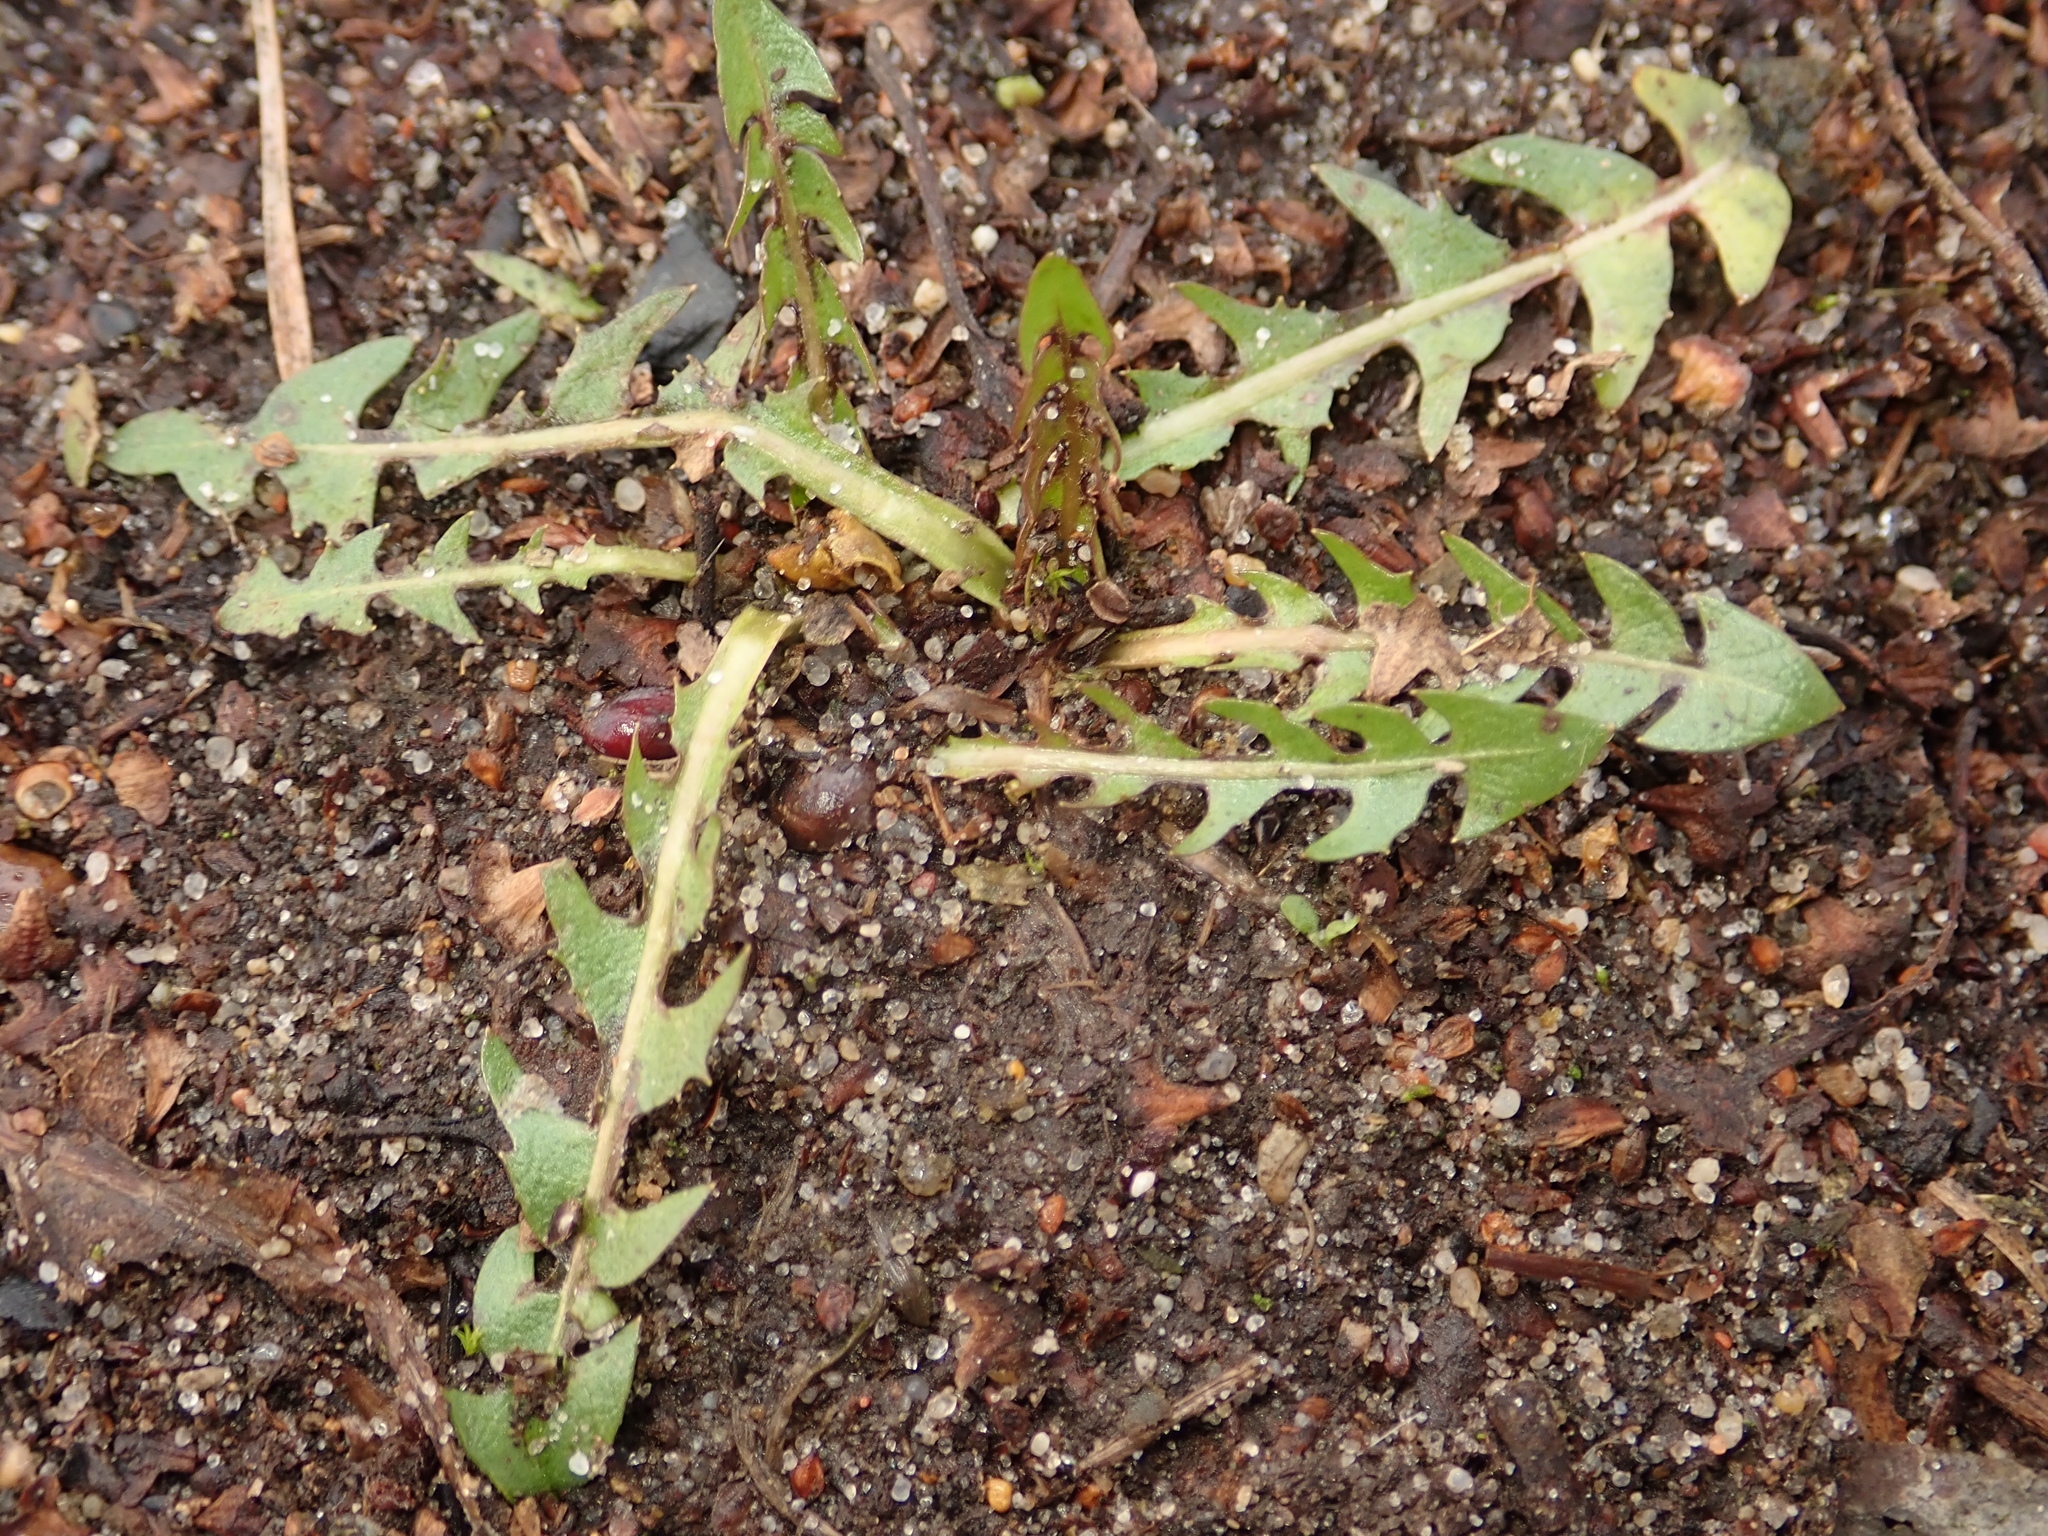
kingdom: Plantae
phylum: Tracheophyta
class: Magnoliopsida
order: Asterales
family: Asteraceae
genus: Taraxacum
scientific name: Taraxacum officinale
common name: Common dandelion
